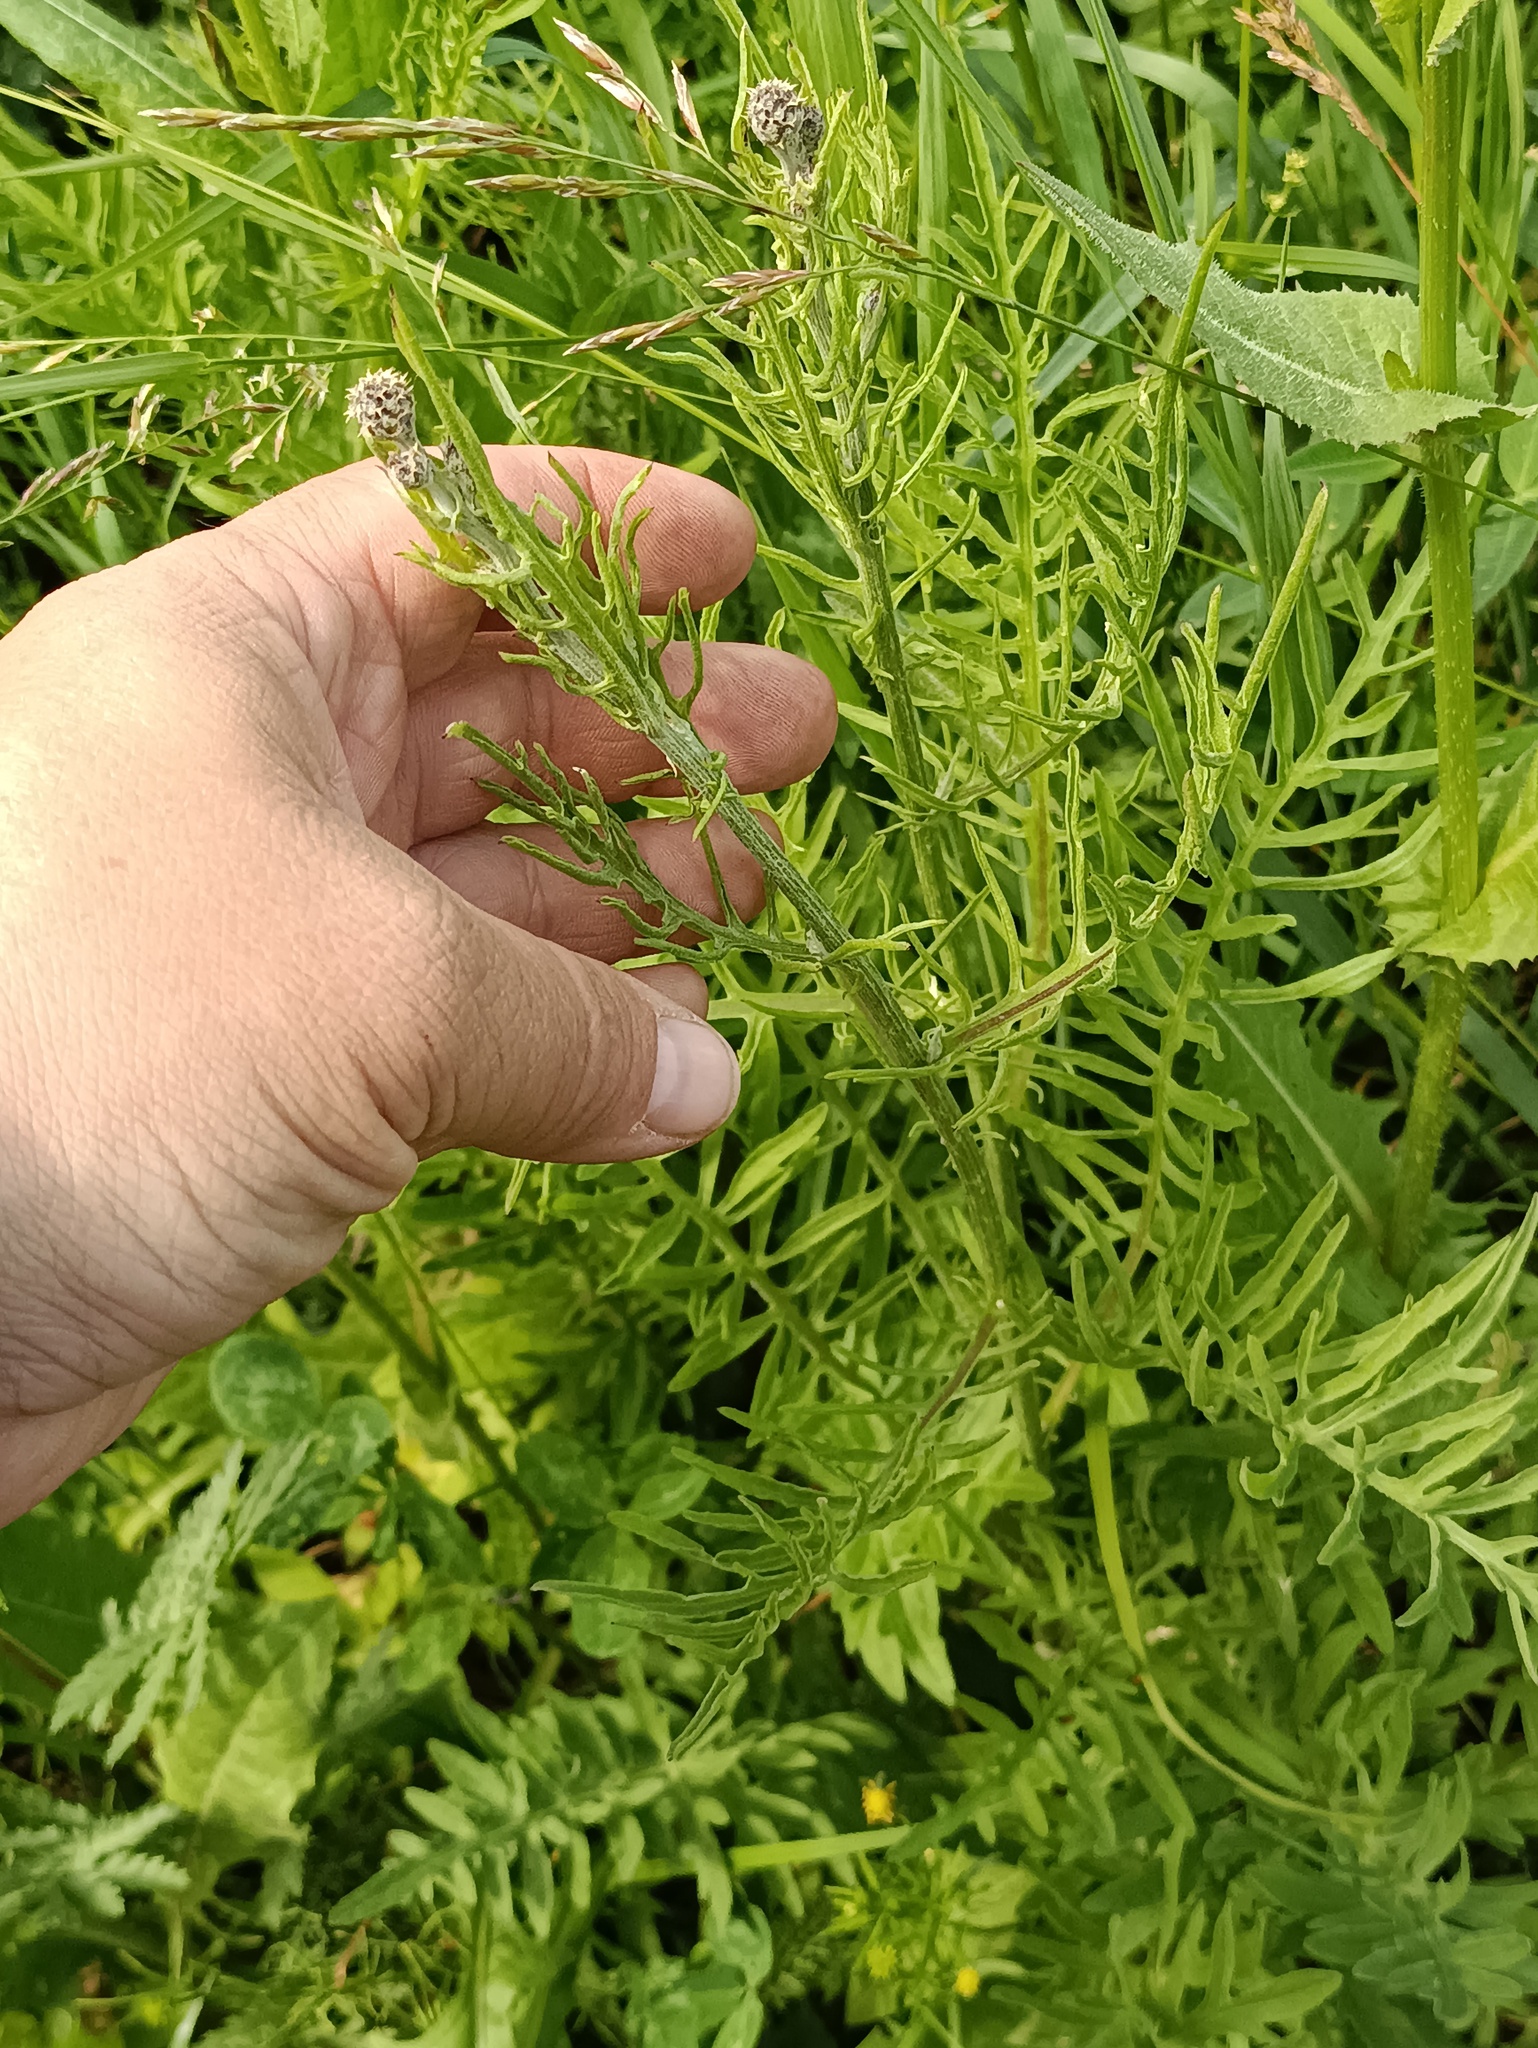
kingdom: Plantae
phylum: Tracheophyta
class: Magnoliopsida
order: Asterales
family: Asteraceae
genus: Centaurea
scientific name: Centaurea scabiosa
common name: Greater knapweed
